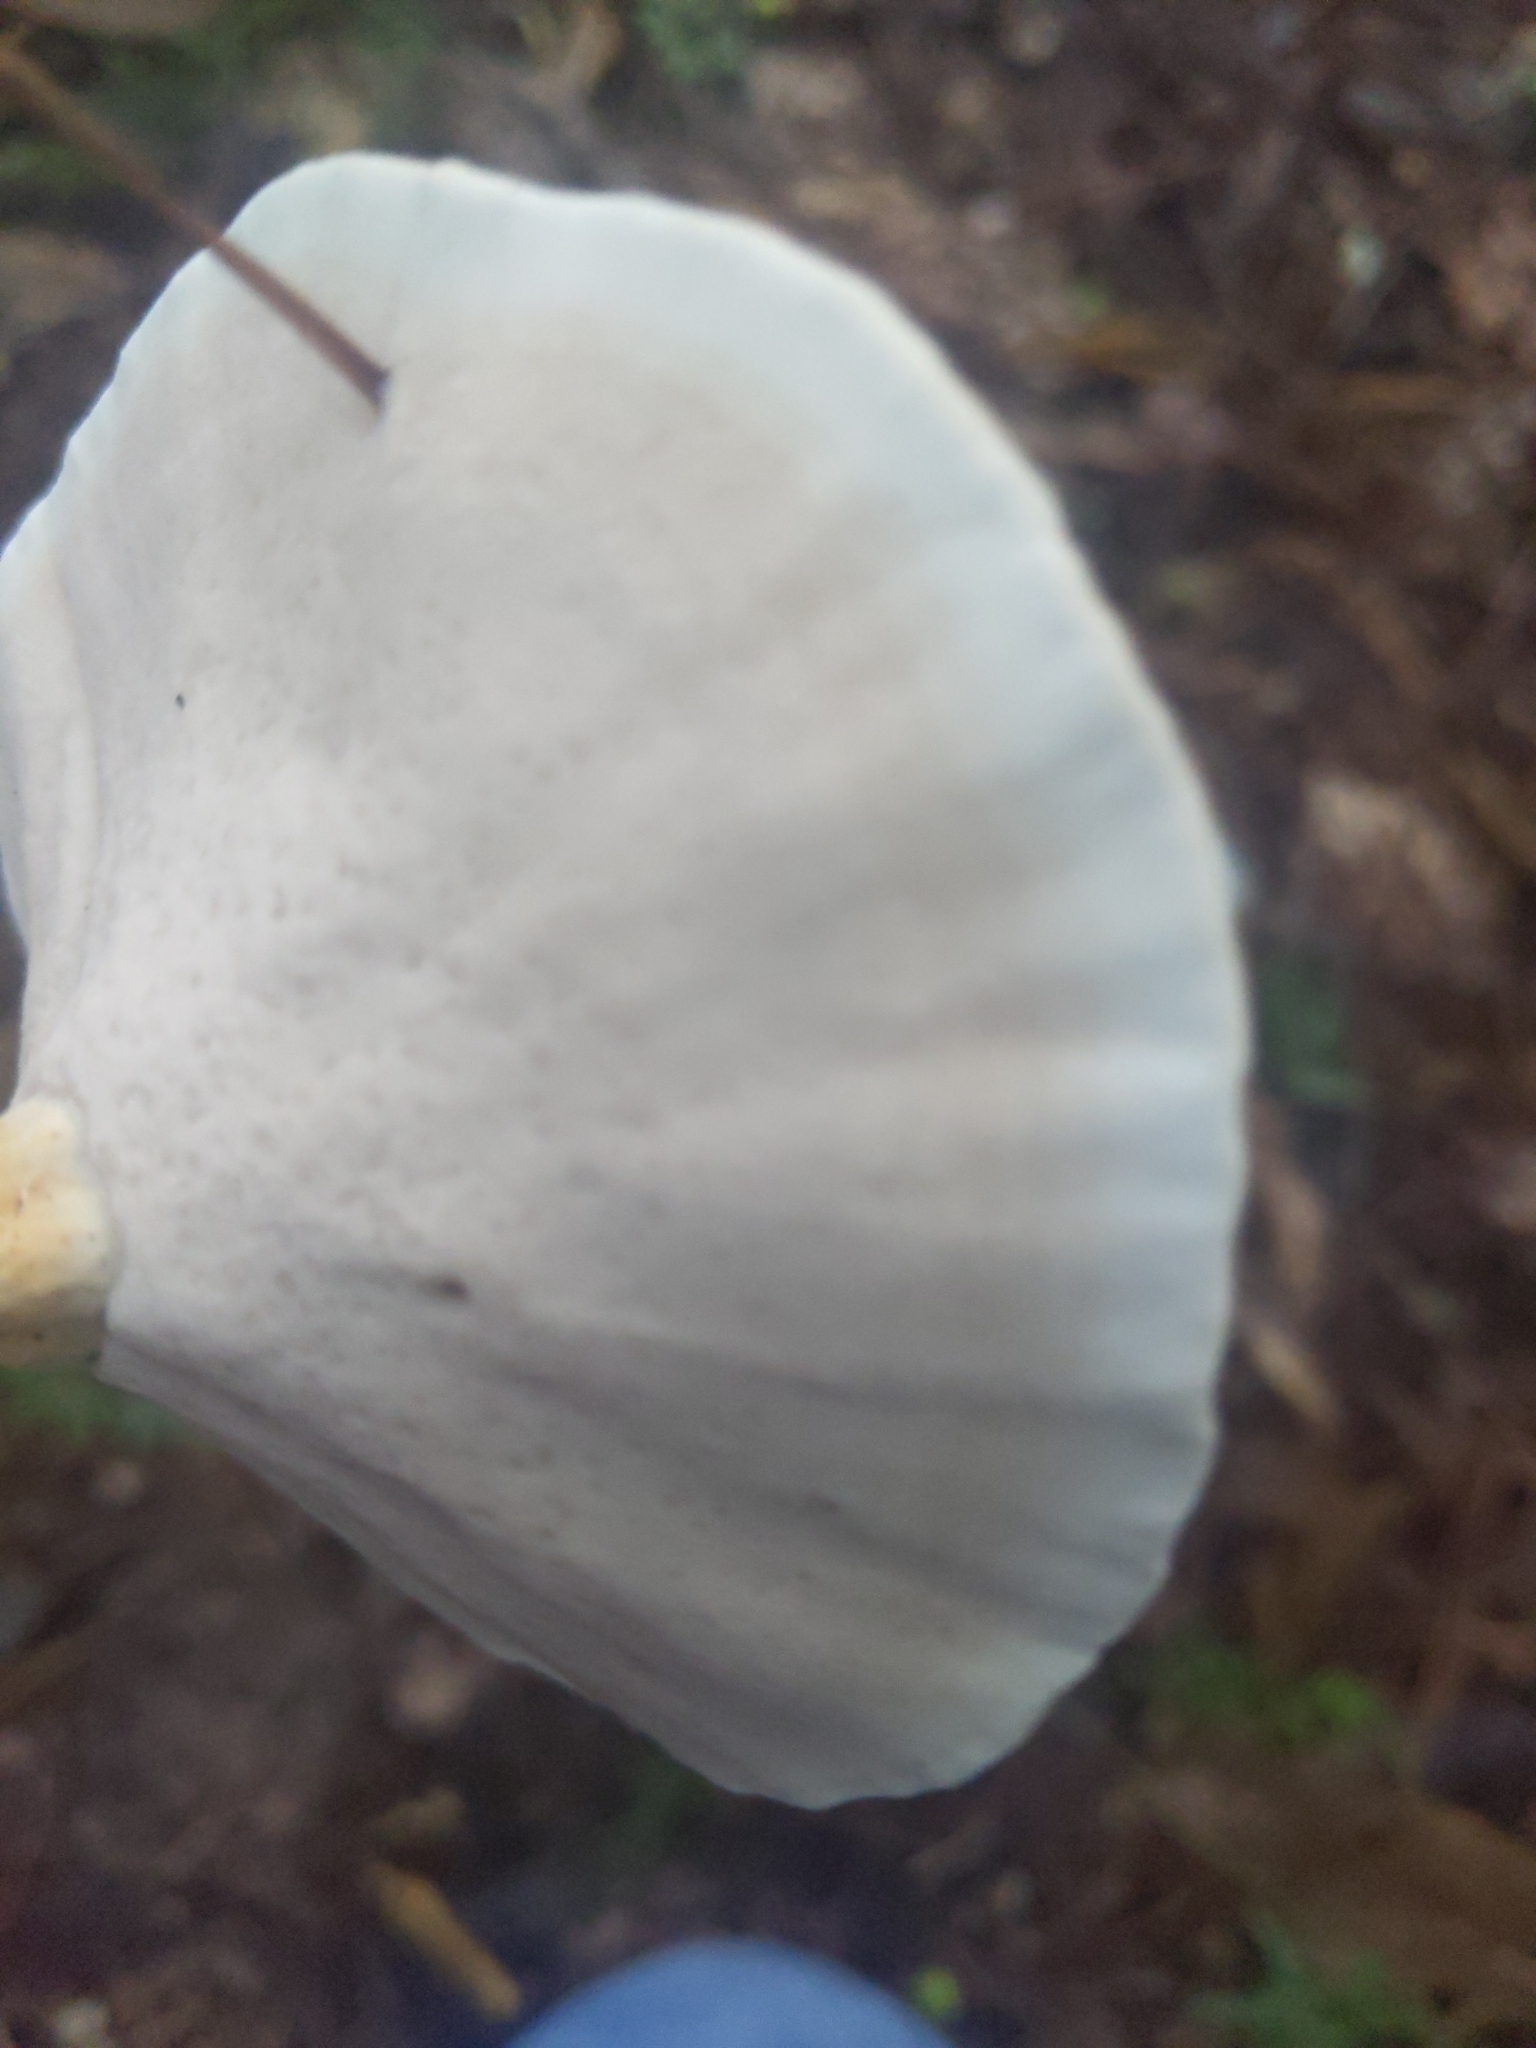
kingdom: Fungi
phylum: Basidiomycota
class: Agaricomycetes
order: Polyporales
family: Polyporaceae
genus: Microporellus
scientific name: Microporellus dealbatus
